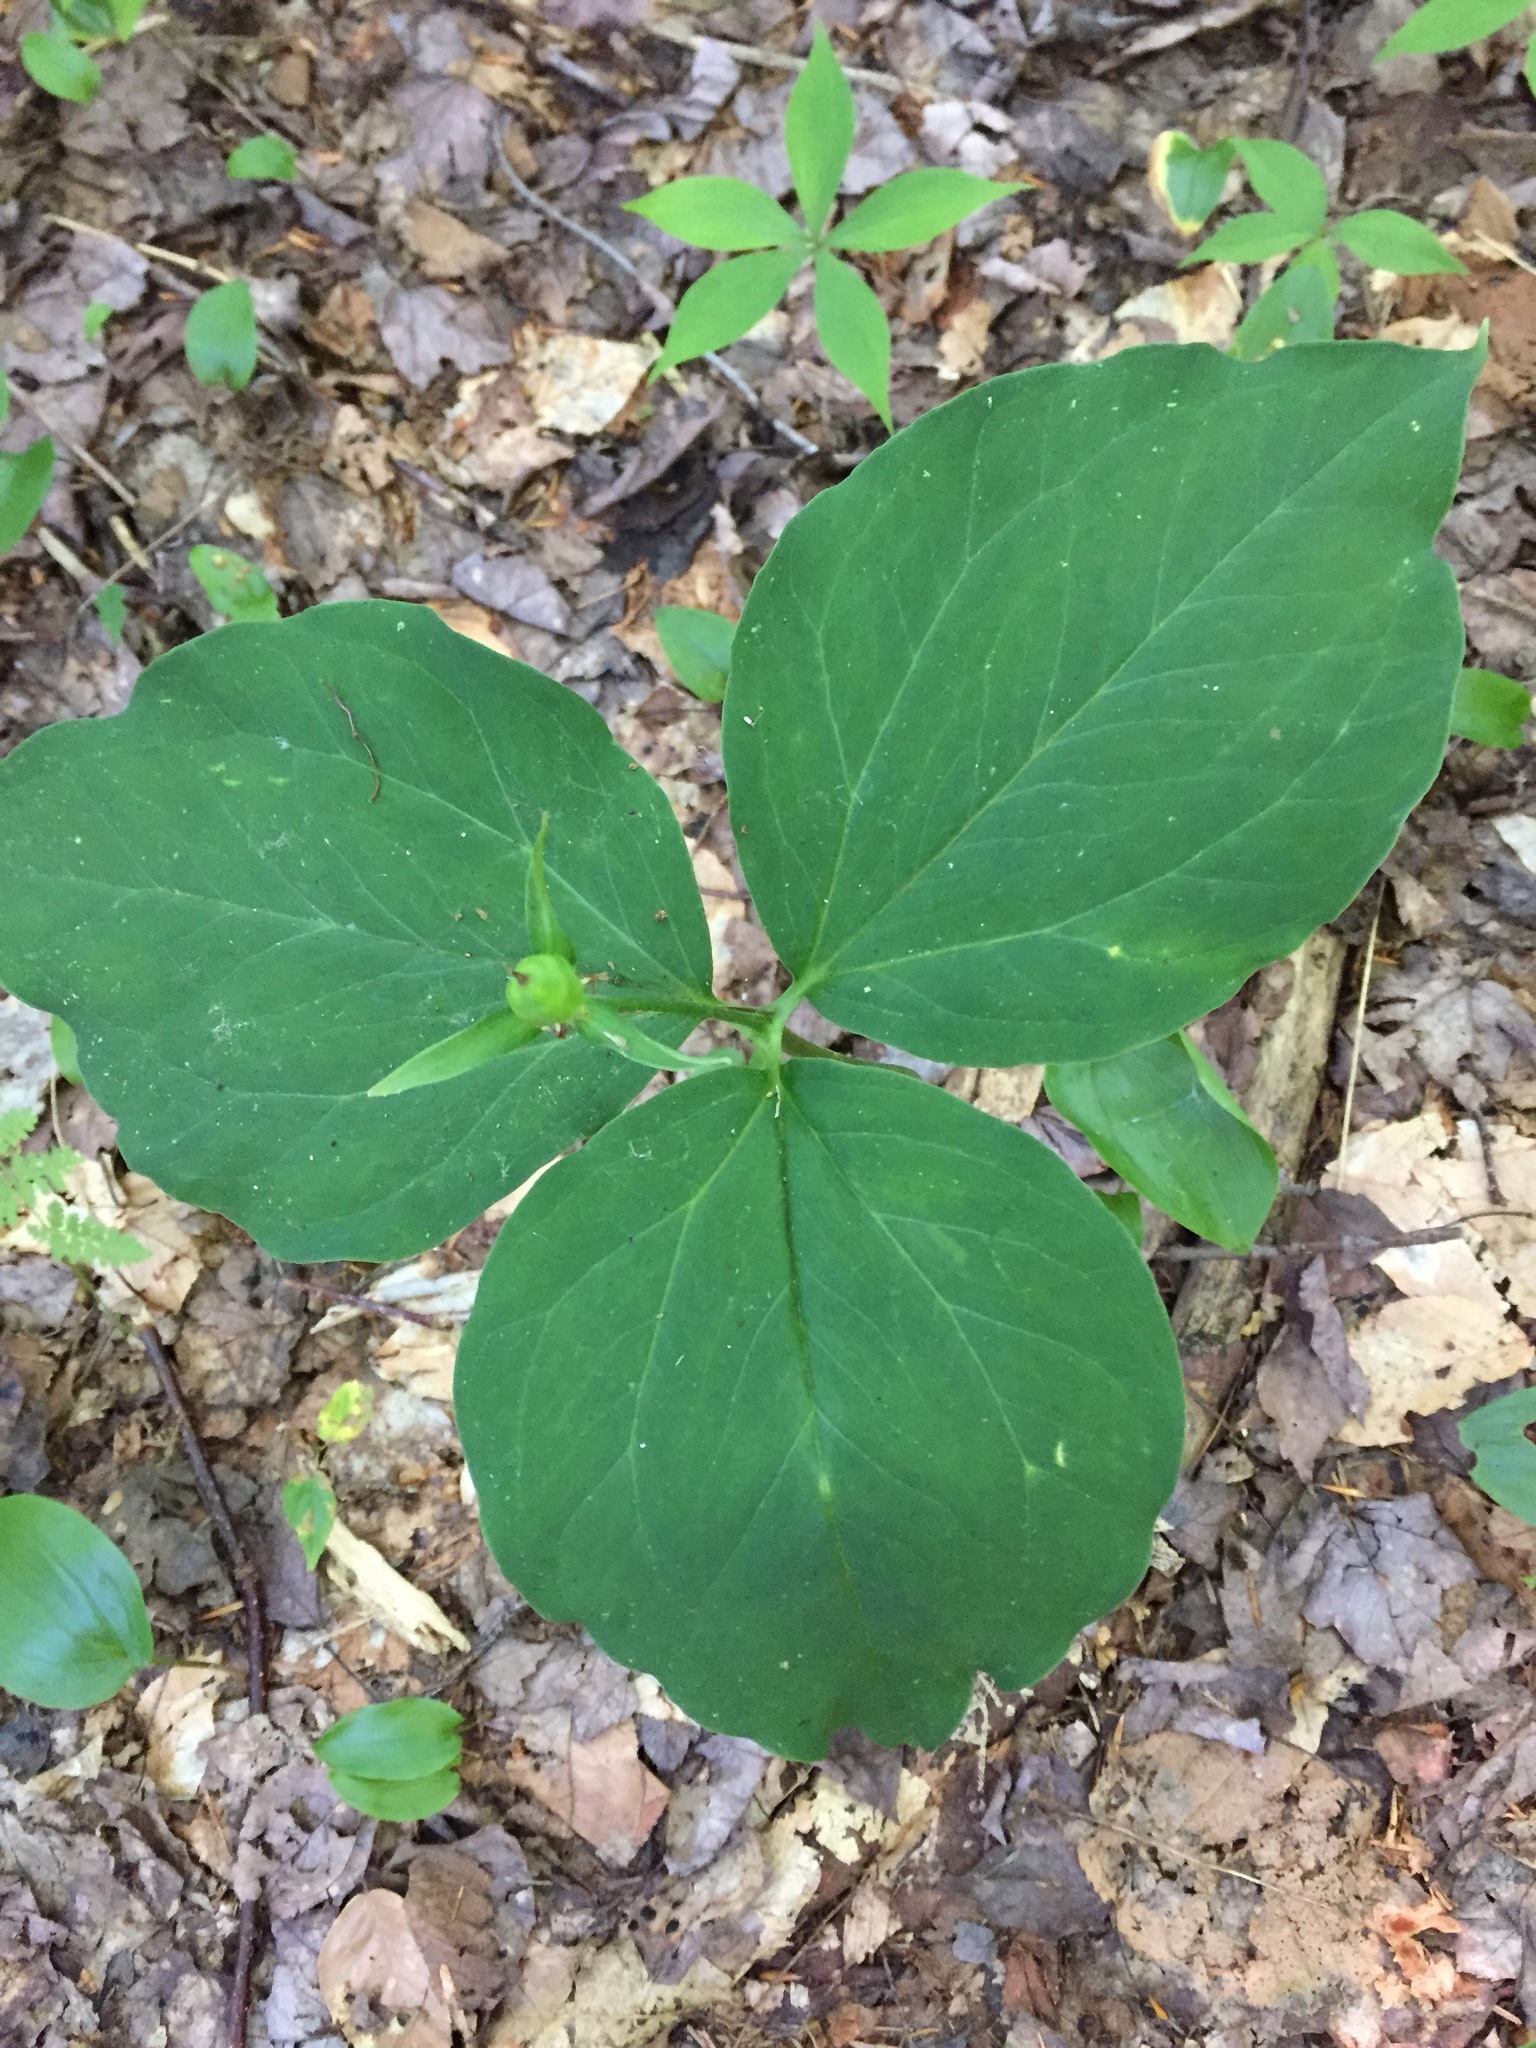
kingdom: Plantae
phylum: Tracheophyta
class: Liliopsida
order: Liliales
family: Melanthiaceae
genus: Trillium
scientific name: Trillium undulatum
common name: Paint trillium
